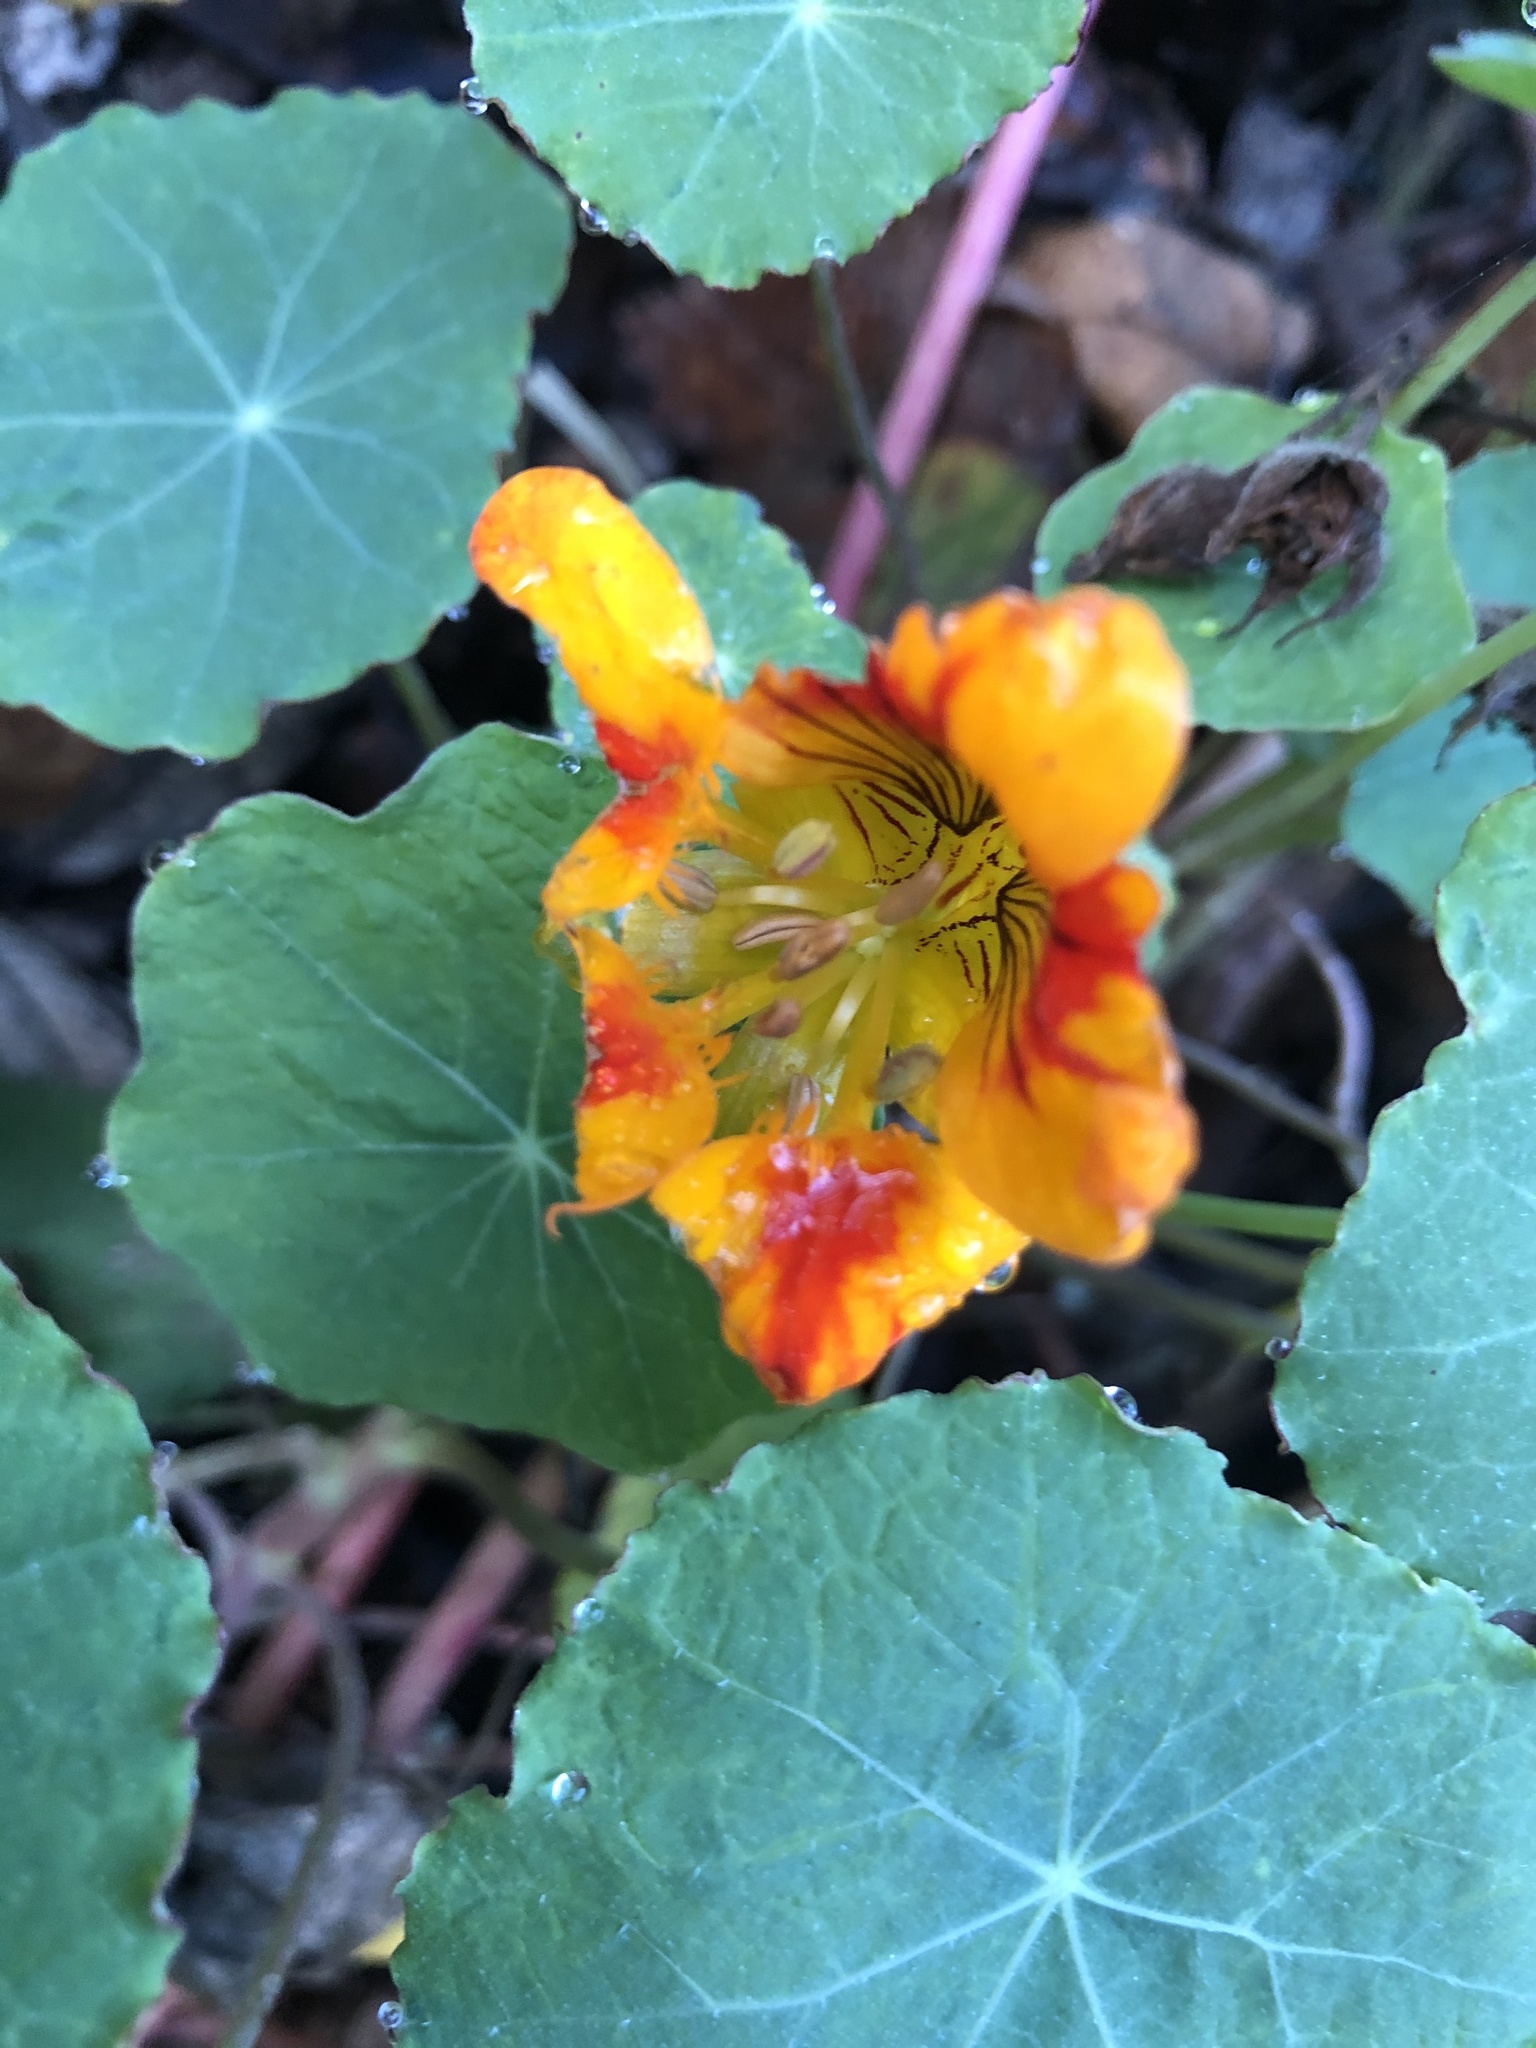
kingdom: Plantae
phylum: Tracheophyta
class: Magnoliopsida
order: Brassicales
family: Tropaeolaceae
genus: Tropaeolum
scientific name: Tropaeolum majus
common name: Nasturtium
